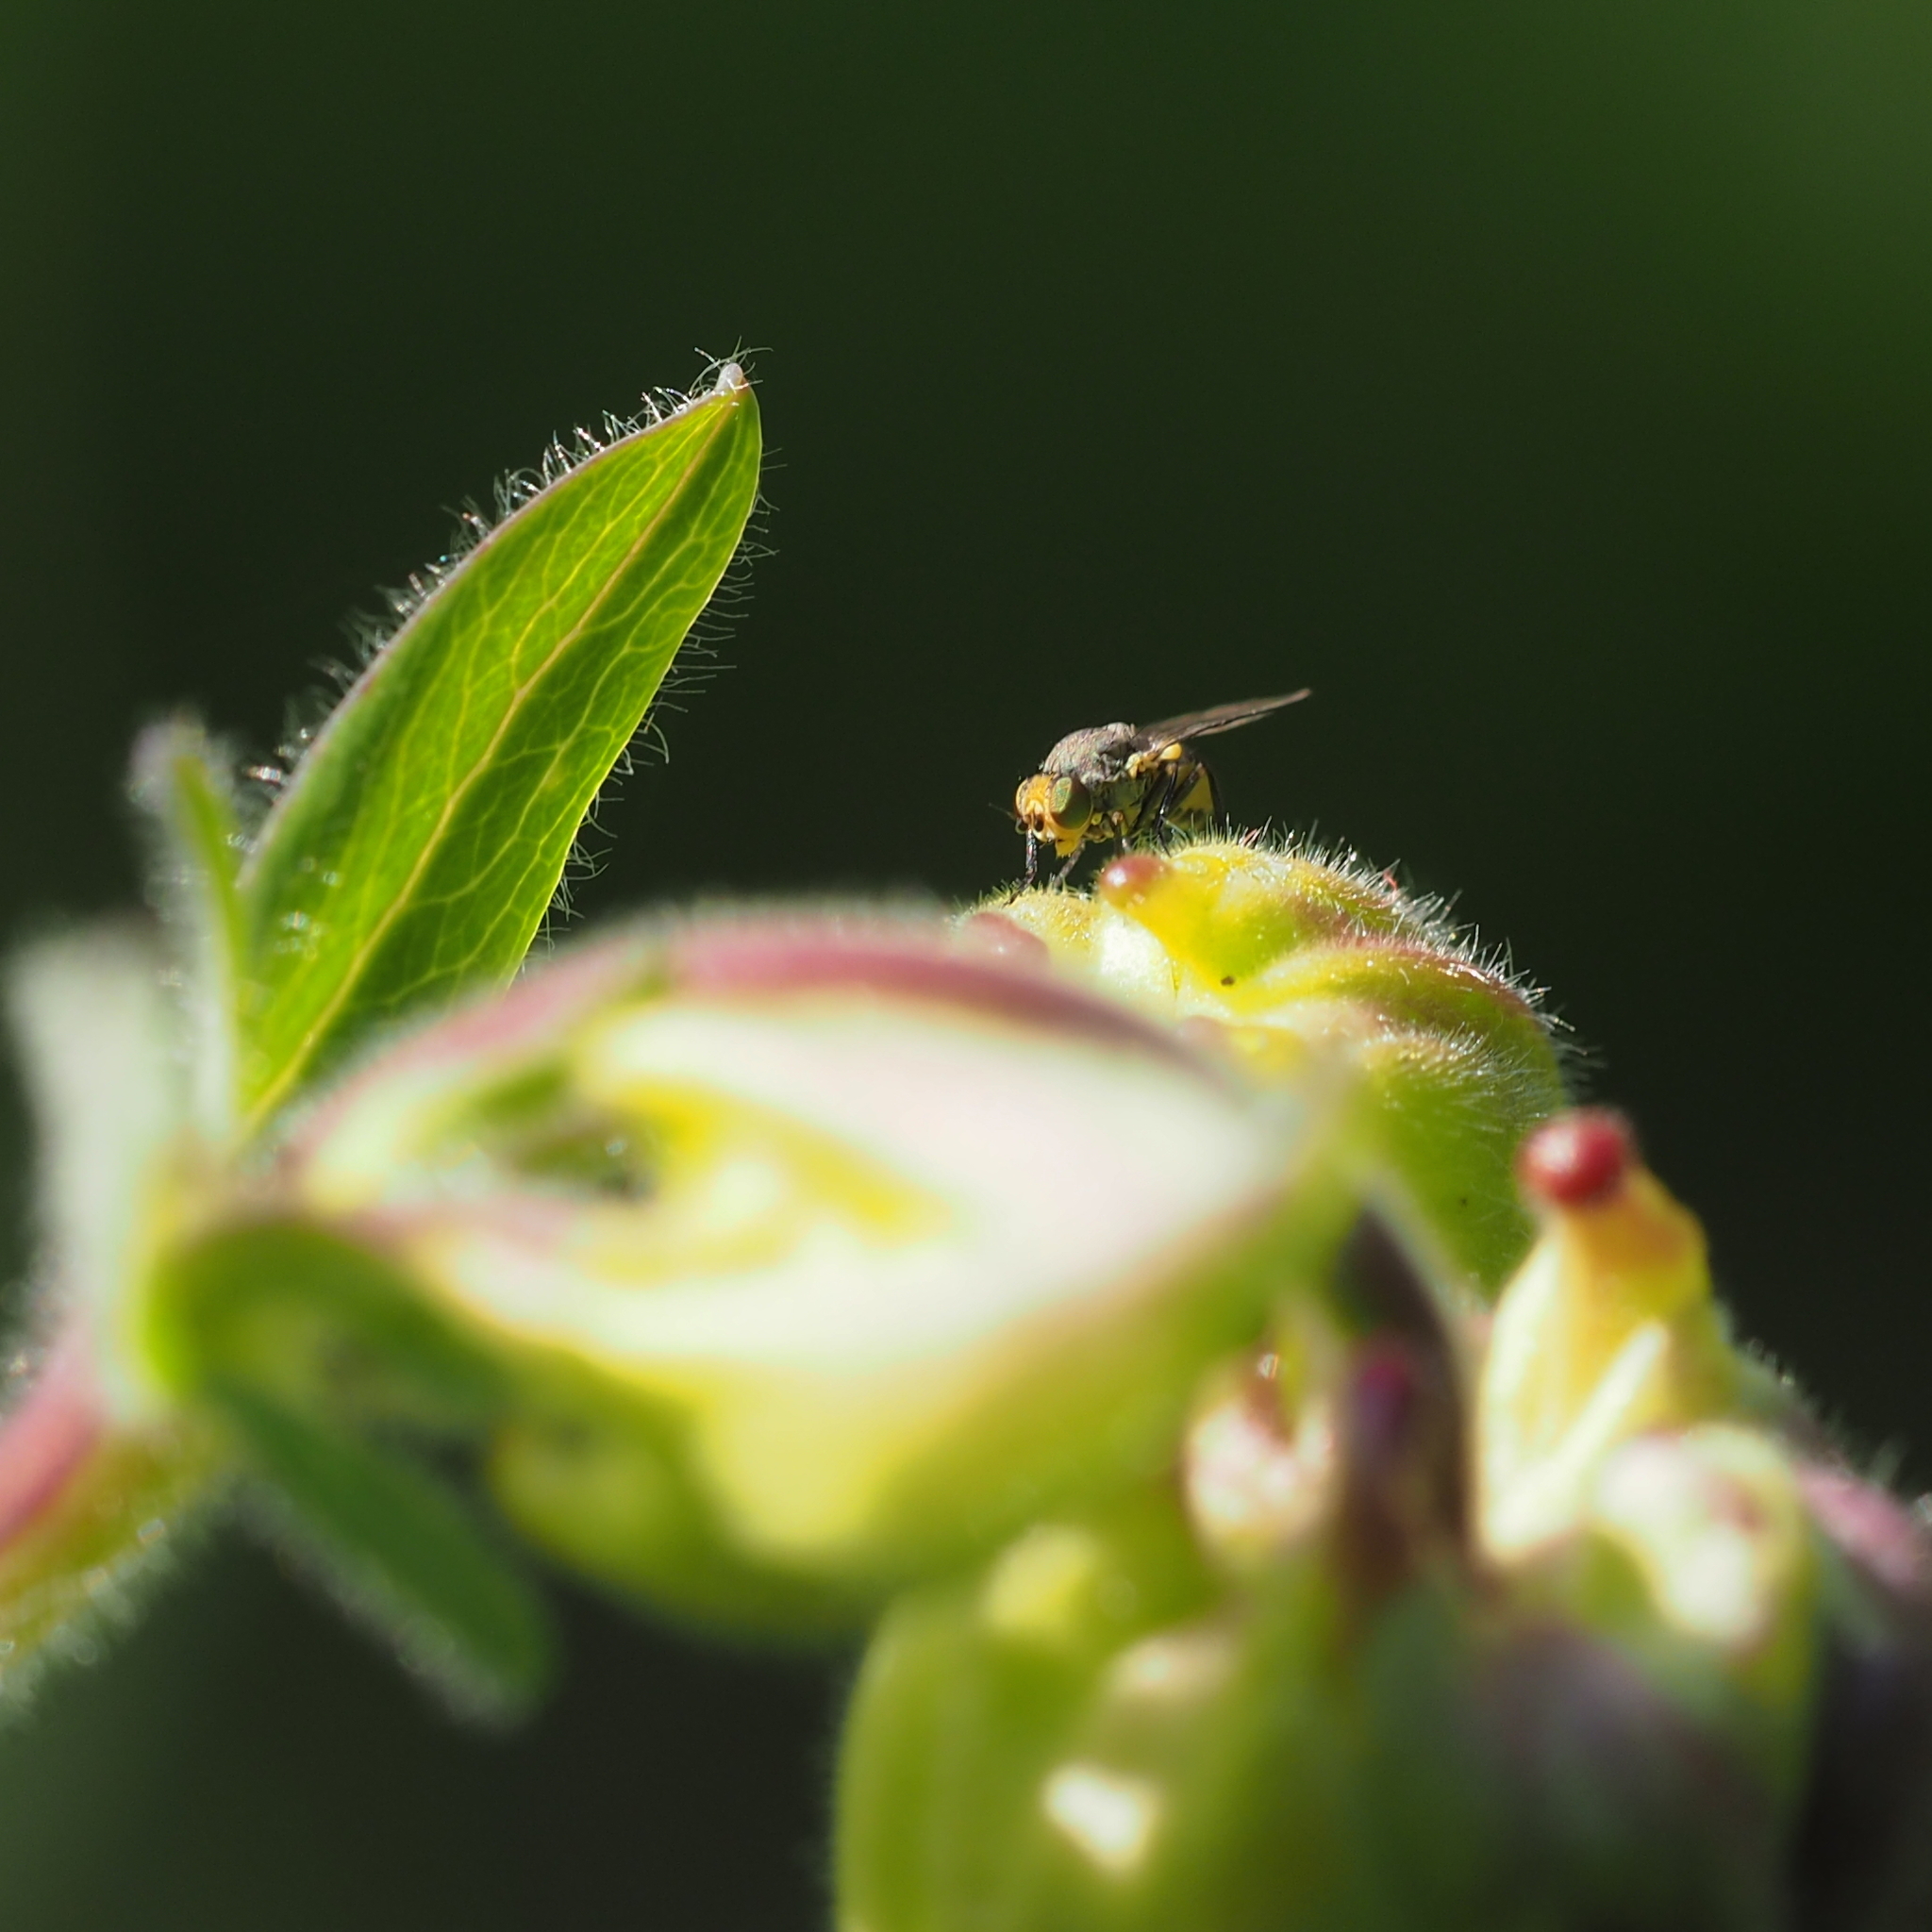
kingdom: Animalia
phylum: Arthropoda
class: Insecta
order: Diptera
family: Agromyzidae
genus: Phytomyza
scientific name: Phytomyza krygeri
